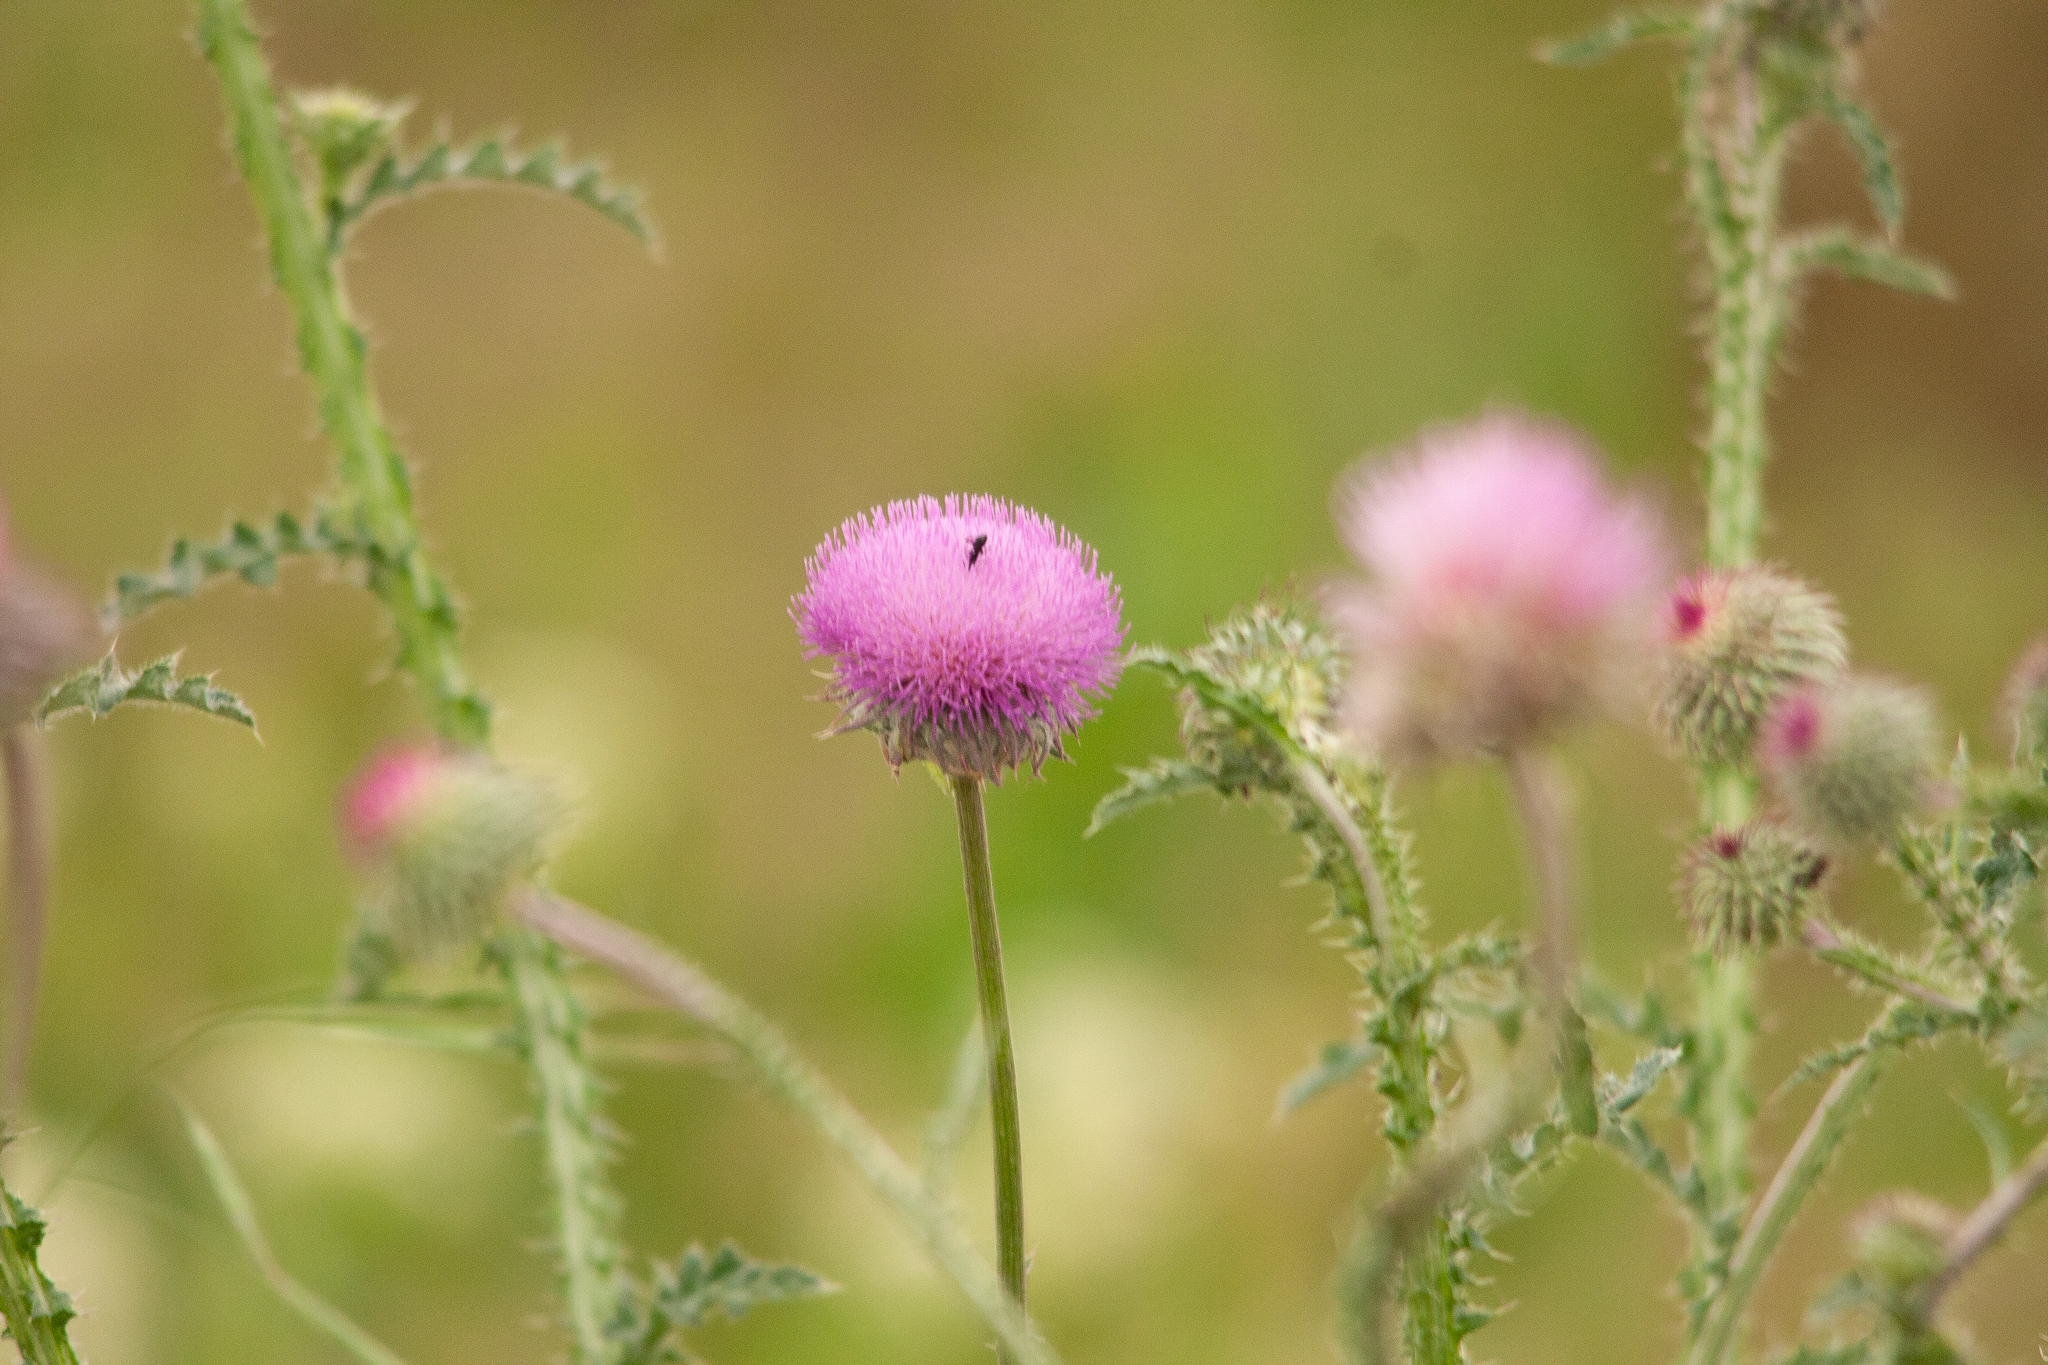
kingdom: Plantae
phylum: Tracheophyta
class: Magnoliopsida
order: Asterales
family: Asteraceae
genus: Carduus
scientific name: Carduus uncinatus
